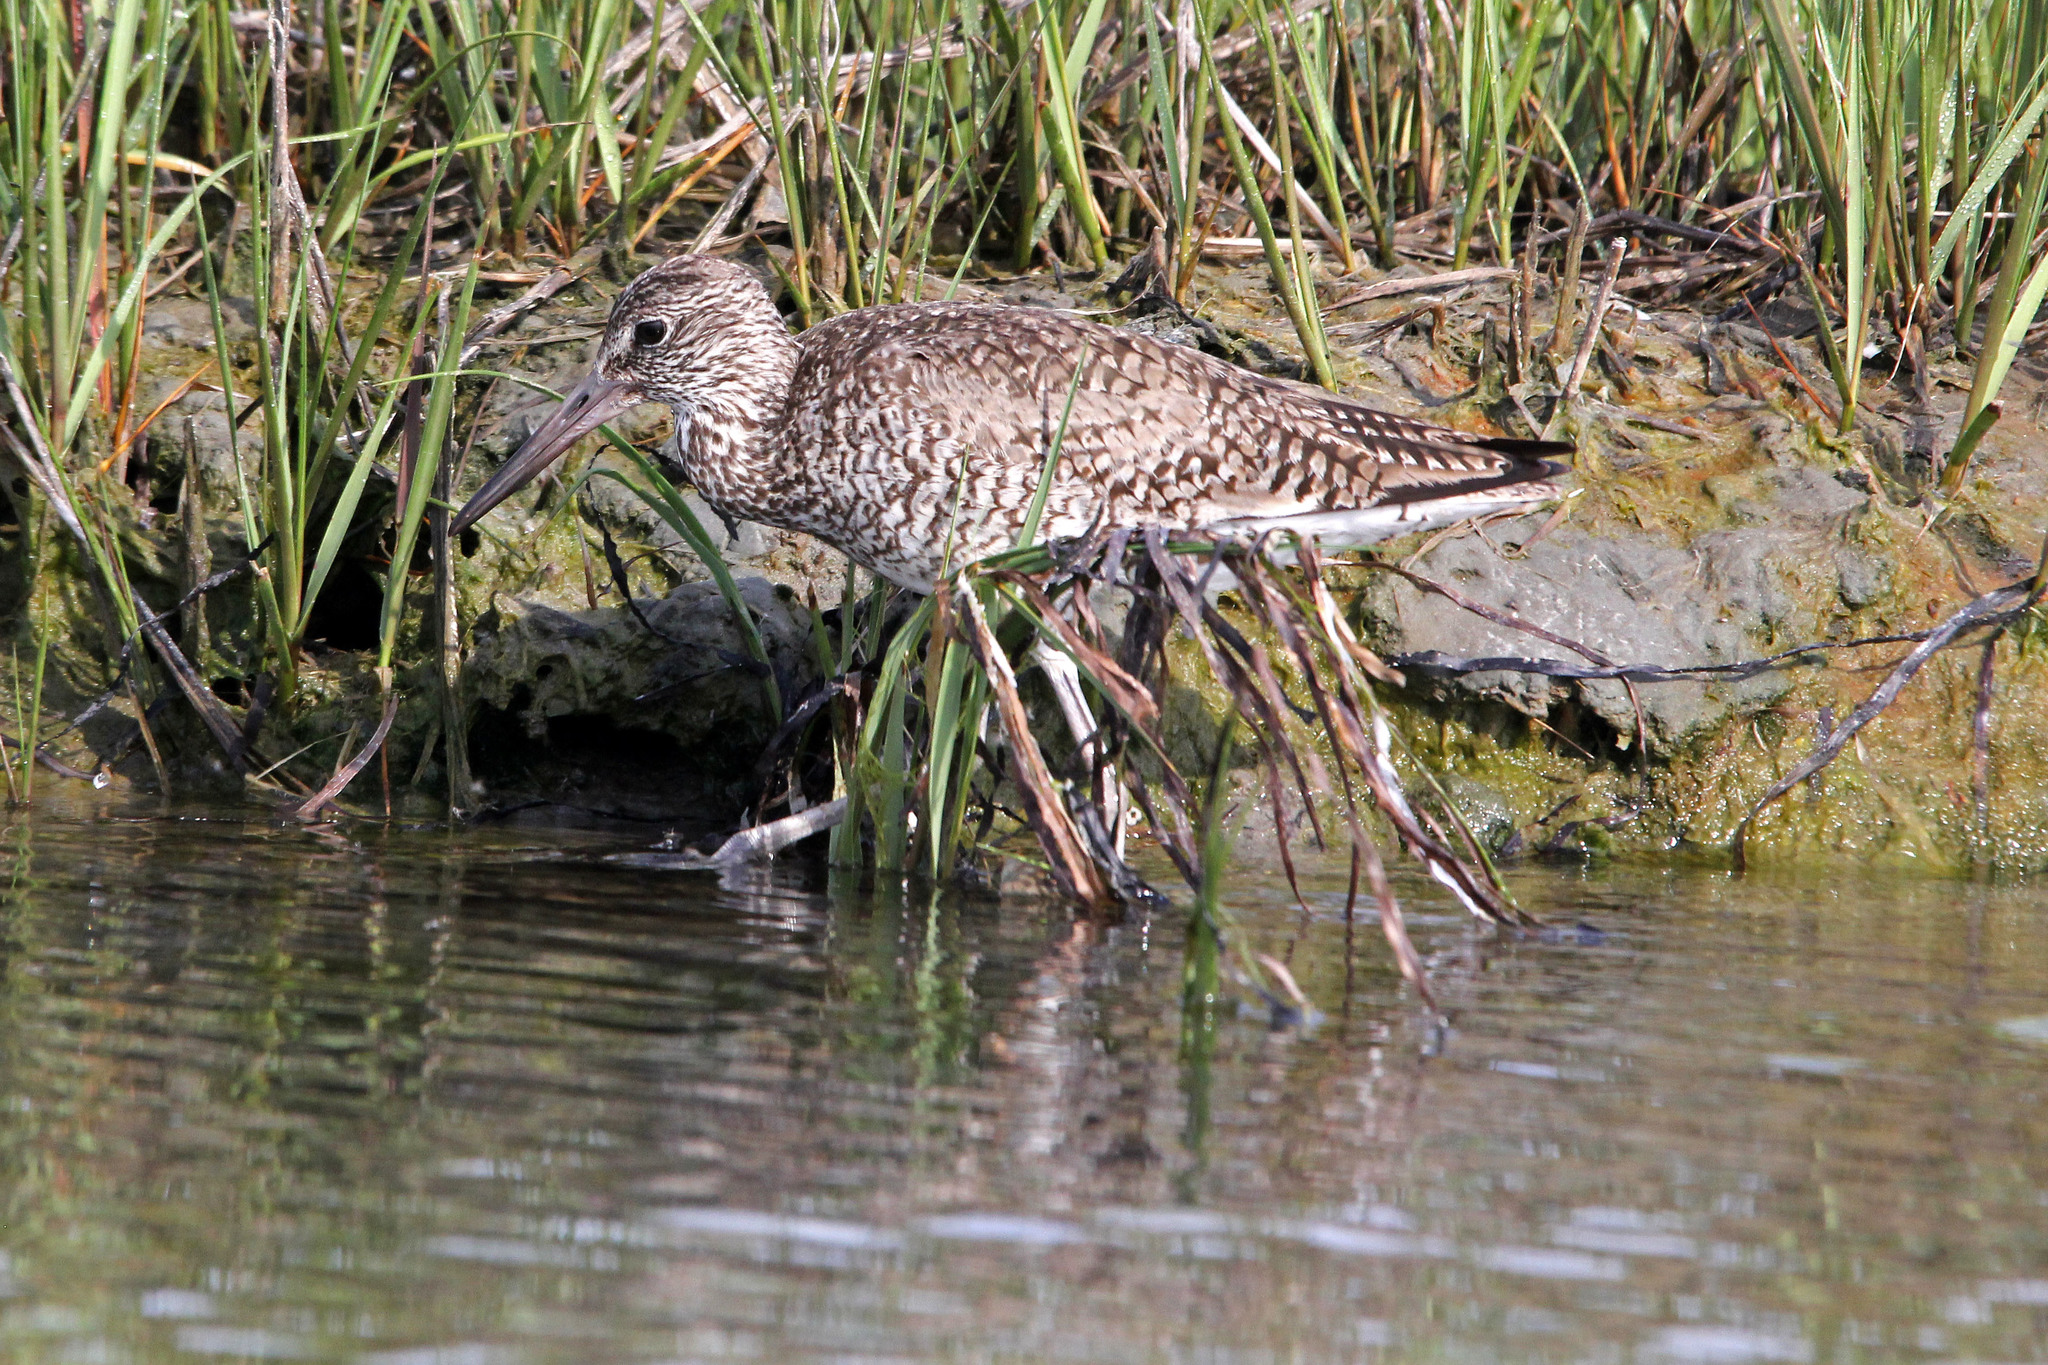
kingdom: Animalia
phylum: Chordata
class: Aves
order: Charadriiformes
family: Scolopacidae
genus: Tringa
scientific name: Tringa semipalmata
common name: Willet
